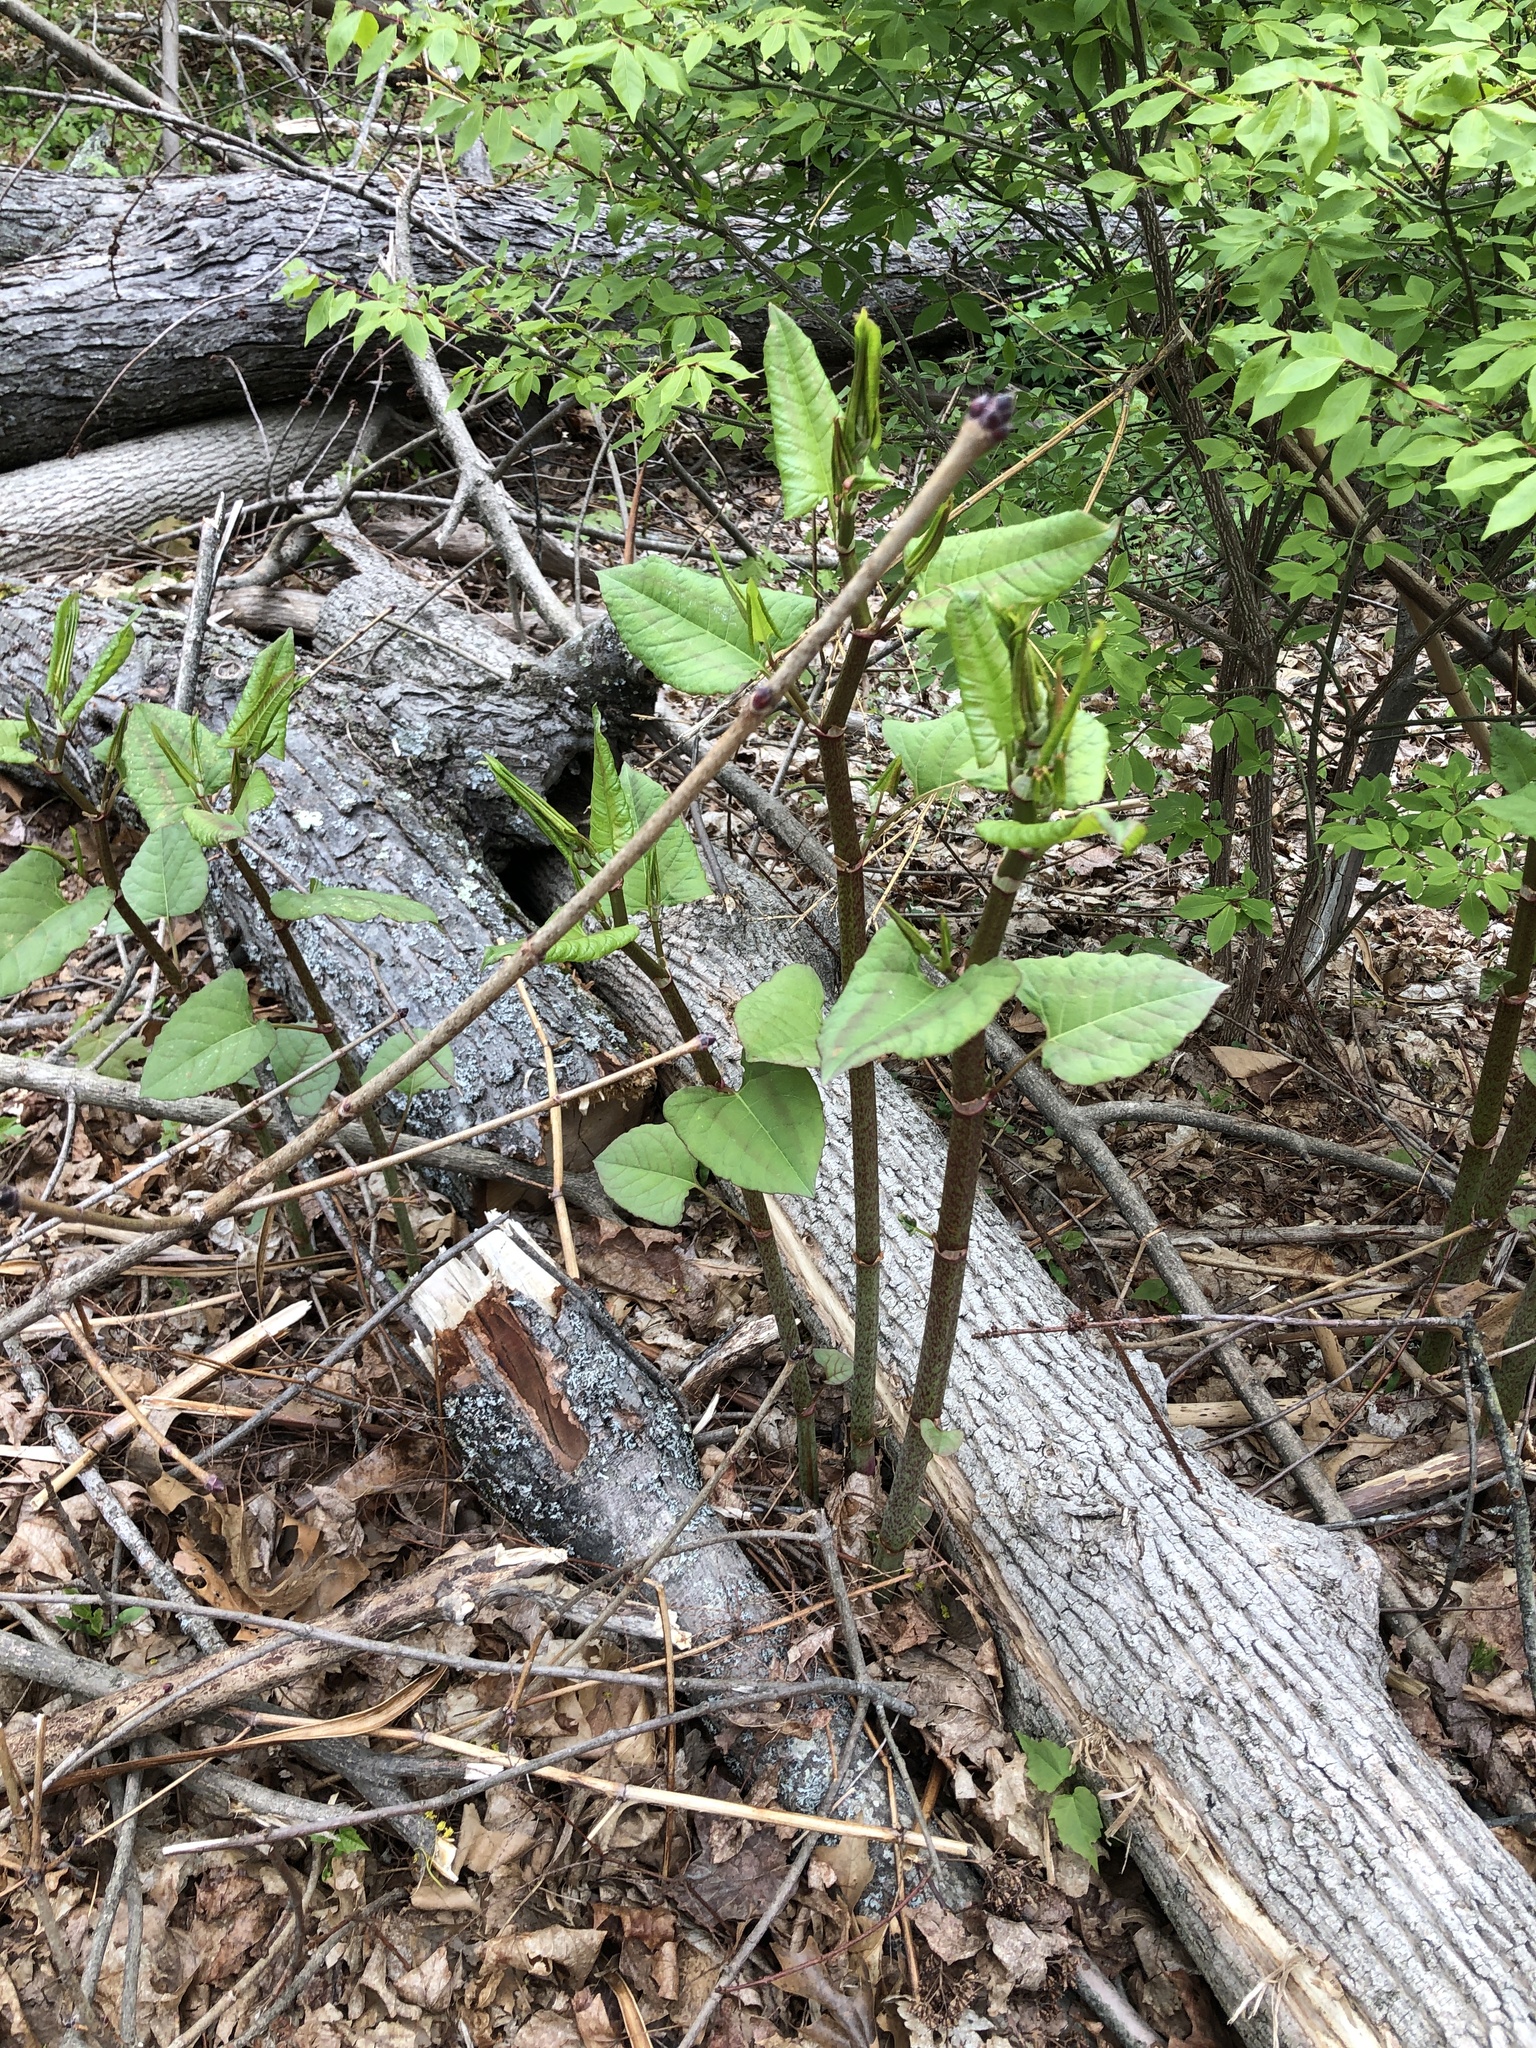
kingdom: Plantae
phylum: Tracheophyta
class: Magnoliopsida
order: Caryophyllales
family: Polygonaceae
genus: Reynoutria
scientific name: Reynoutria japonica
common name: Japanese knotweed
